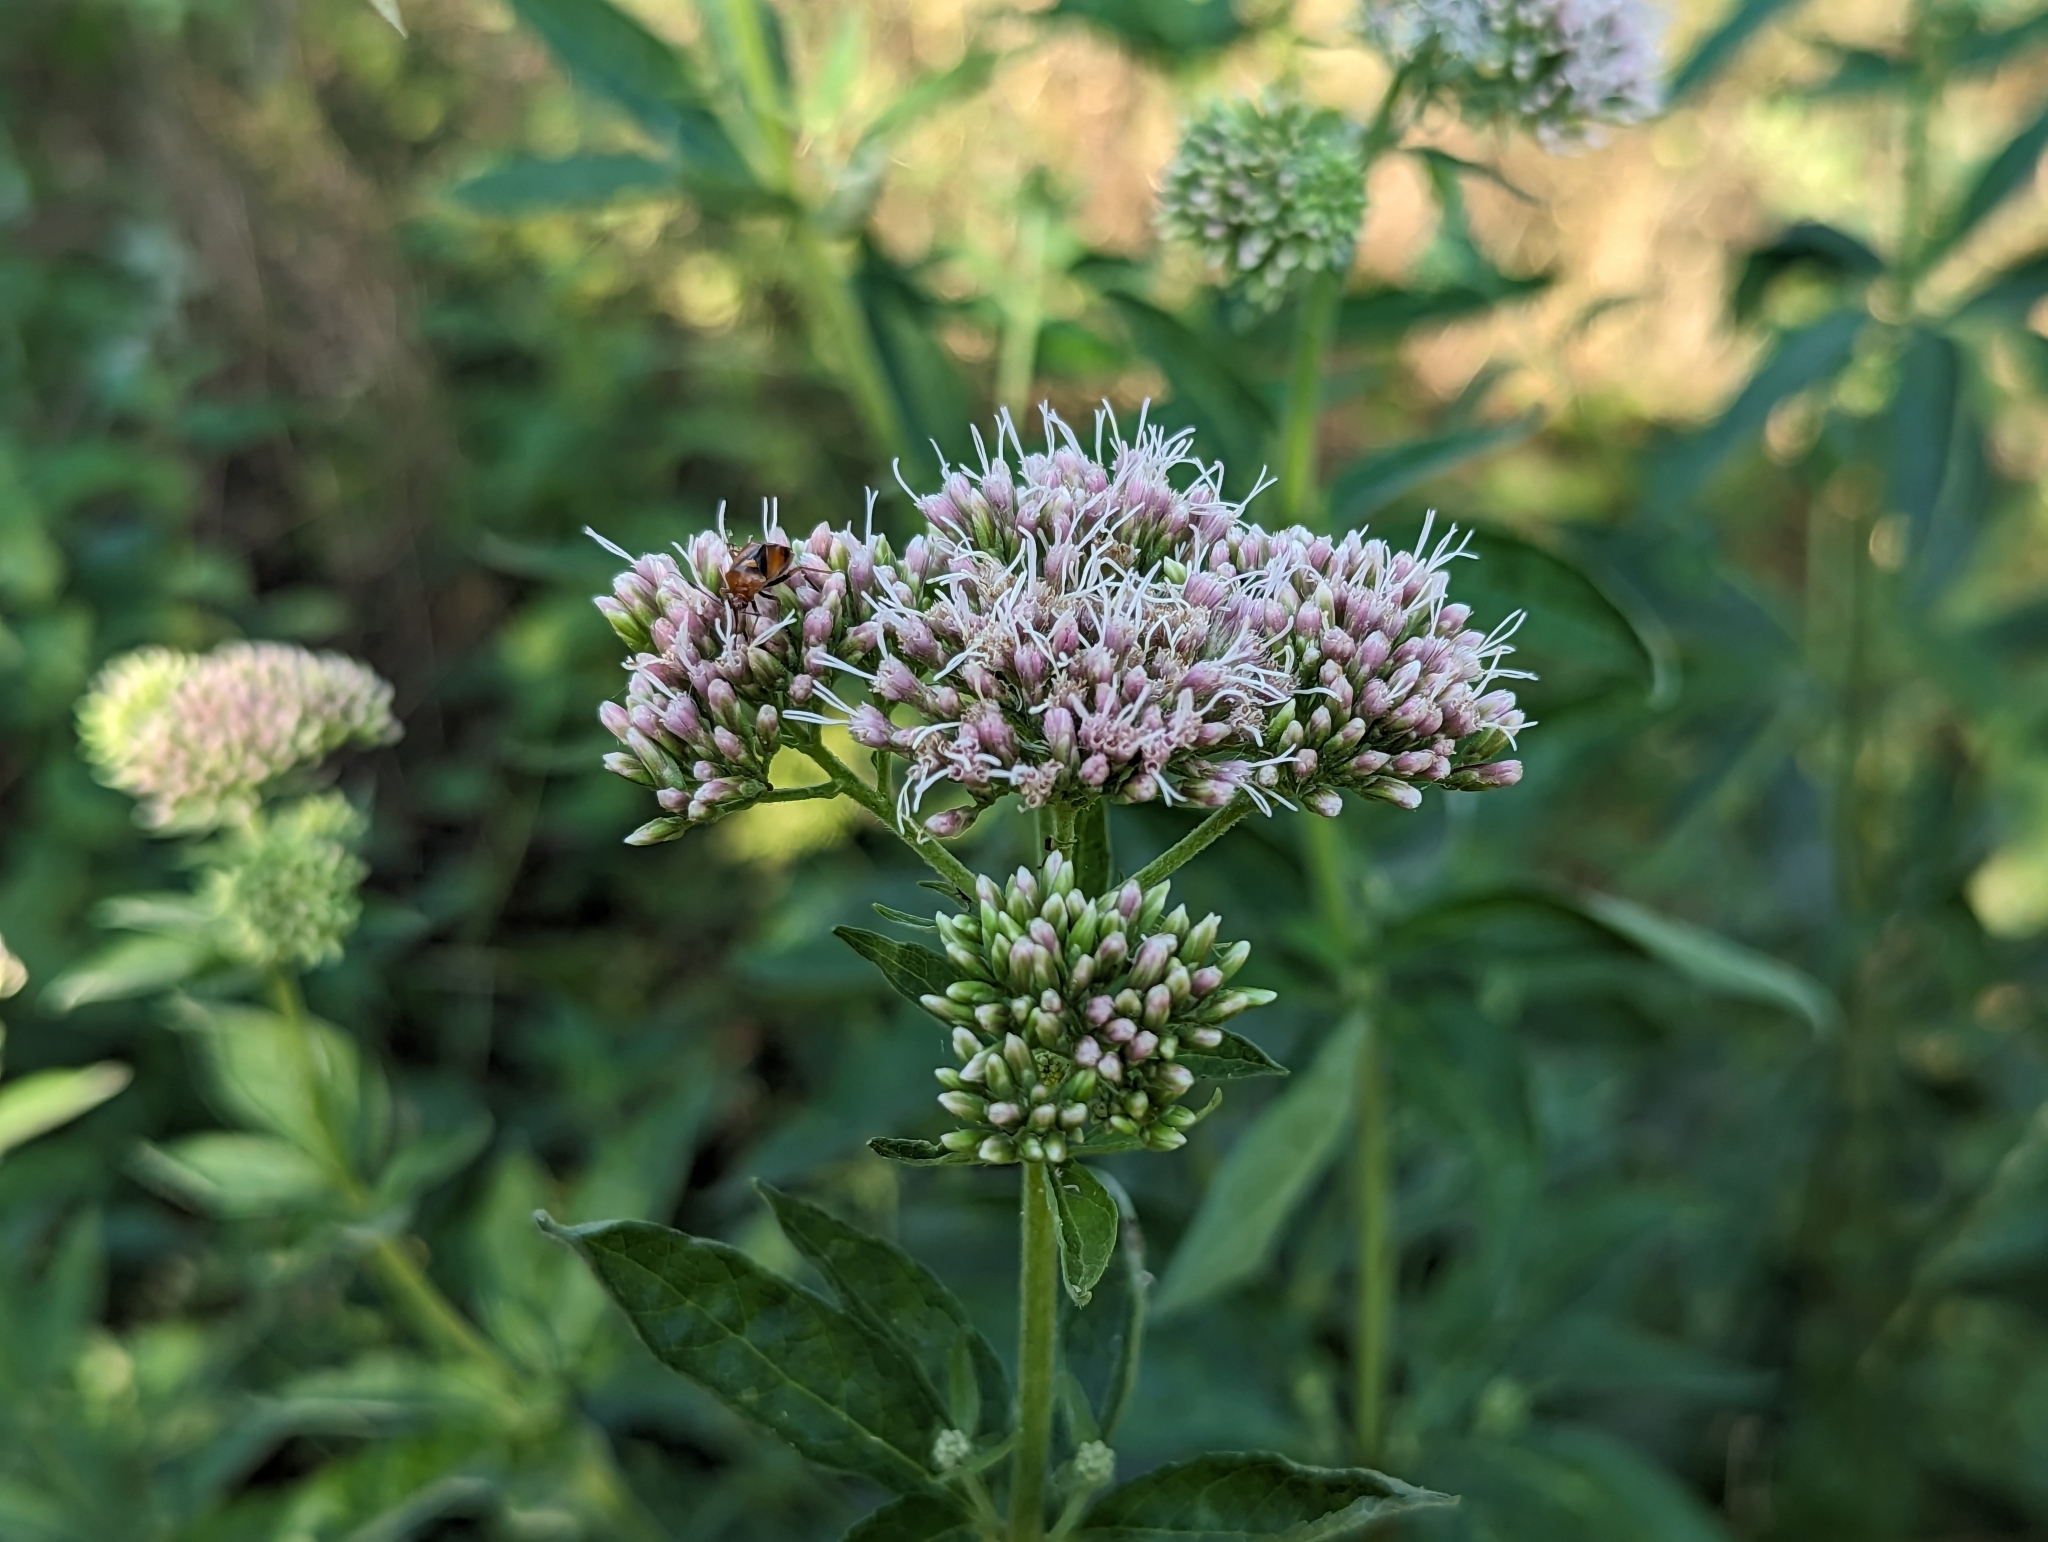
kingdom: Plantae
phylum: Tracheophyta
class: Magnoliopsida
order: Asterales
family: Asteraceae
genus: Eupatorium
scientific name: Eupatorium cannabinum
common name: Hemp-agrimony
